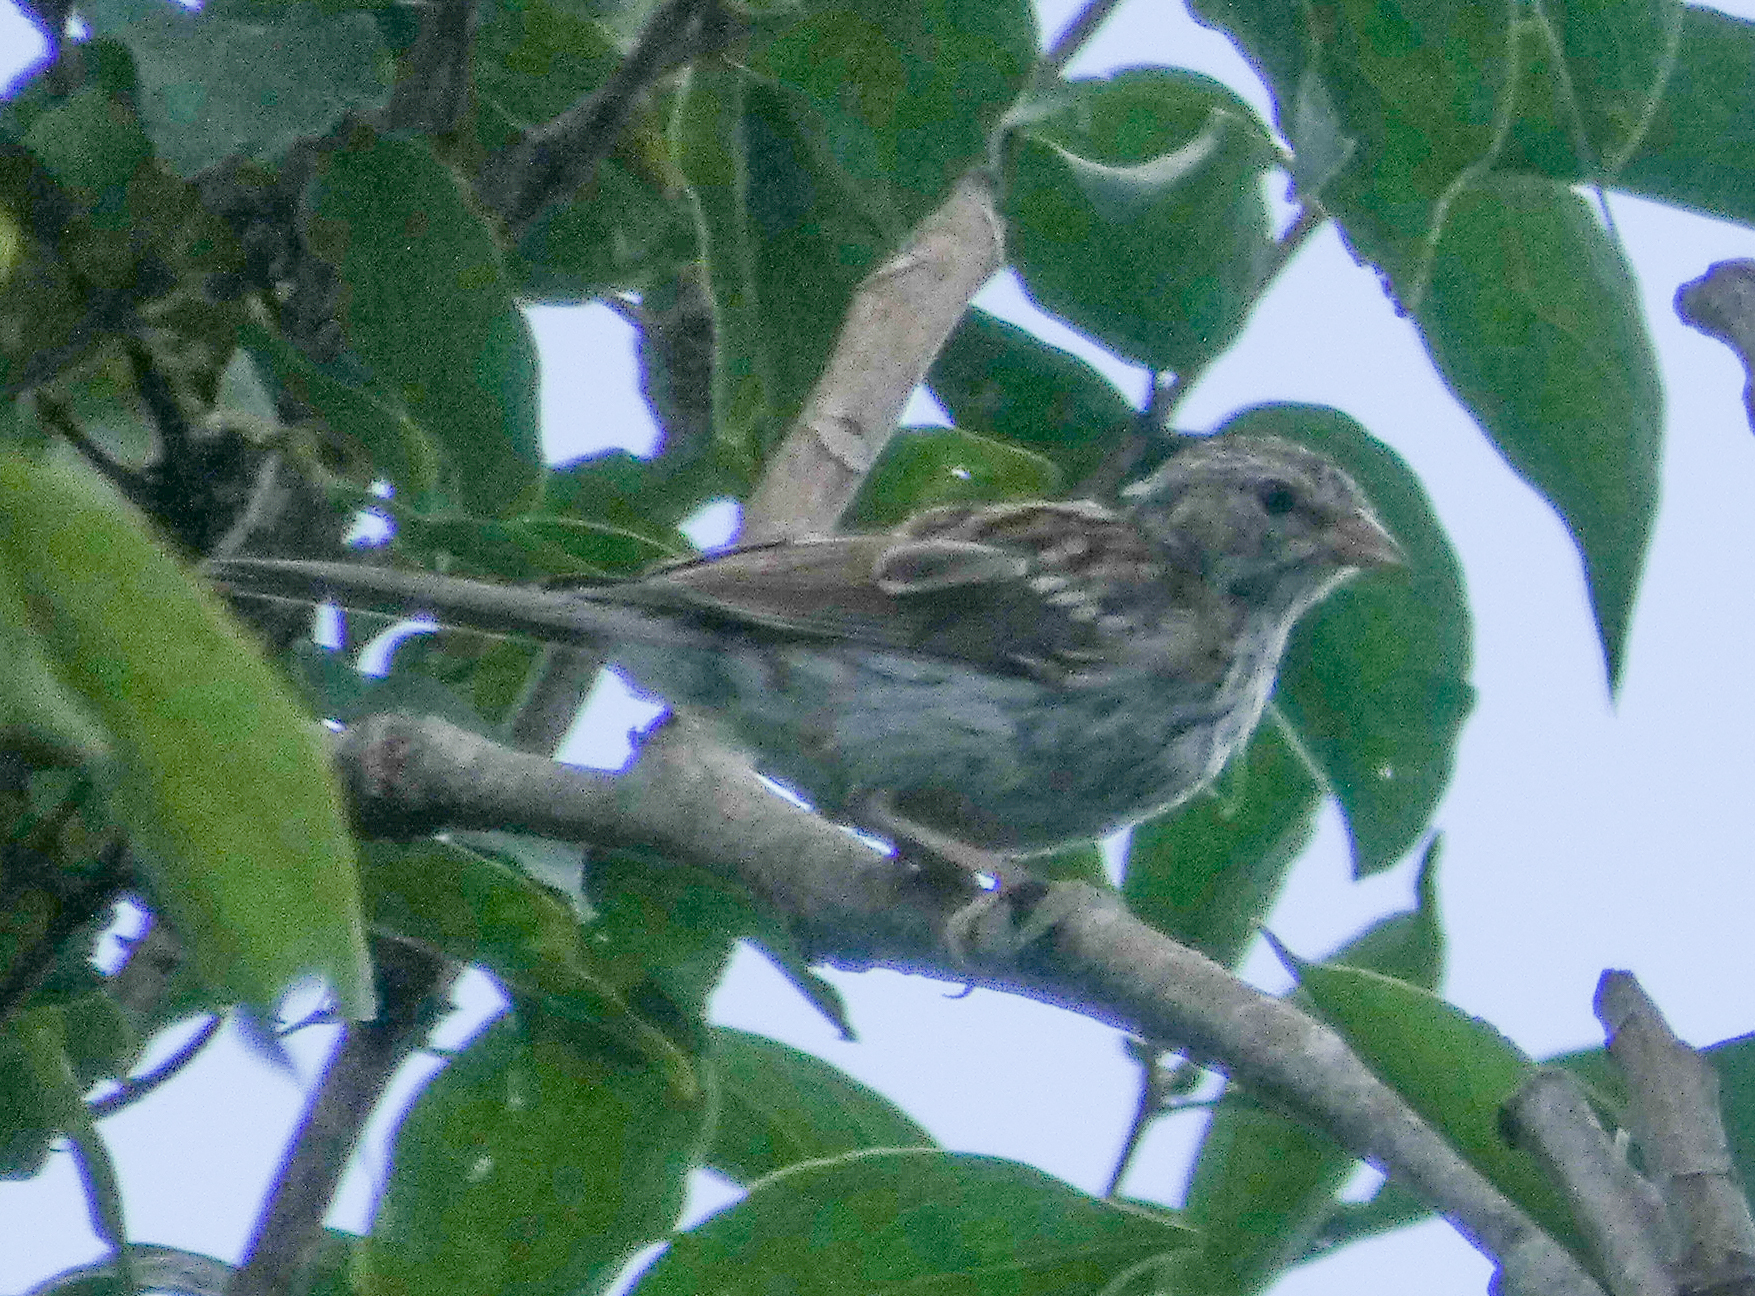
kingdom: Animalia
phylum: Chordata
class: Aves
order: Passeriformes
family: Passerellidae
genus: Spizella
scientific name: Spizella passerina
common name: Chipping sparrow
